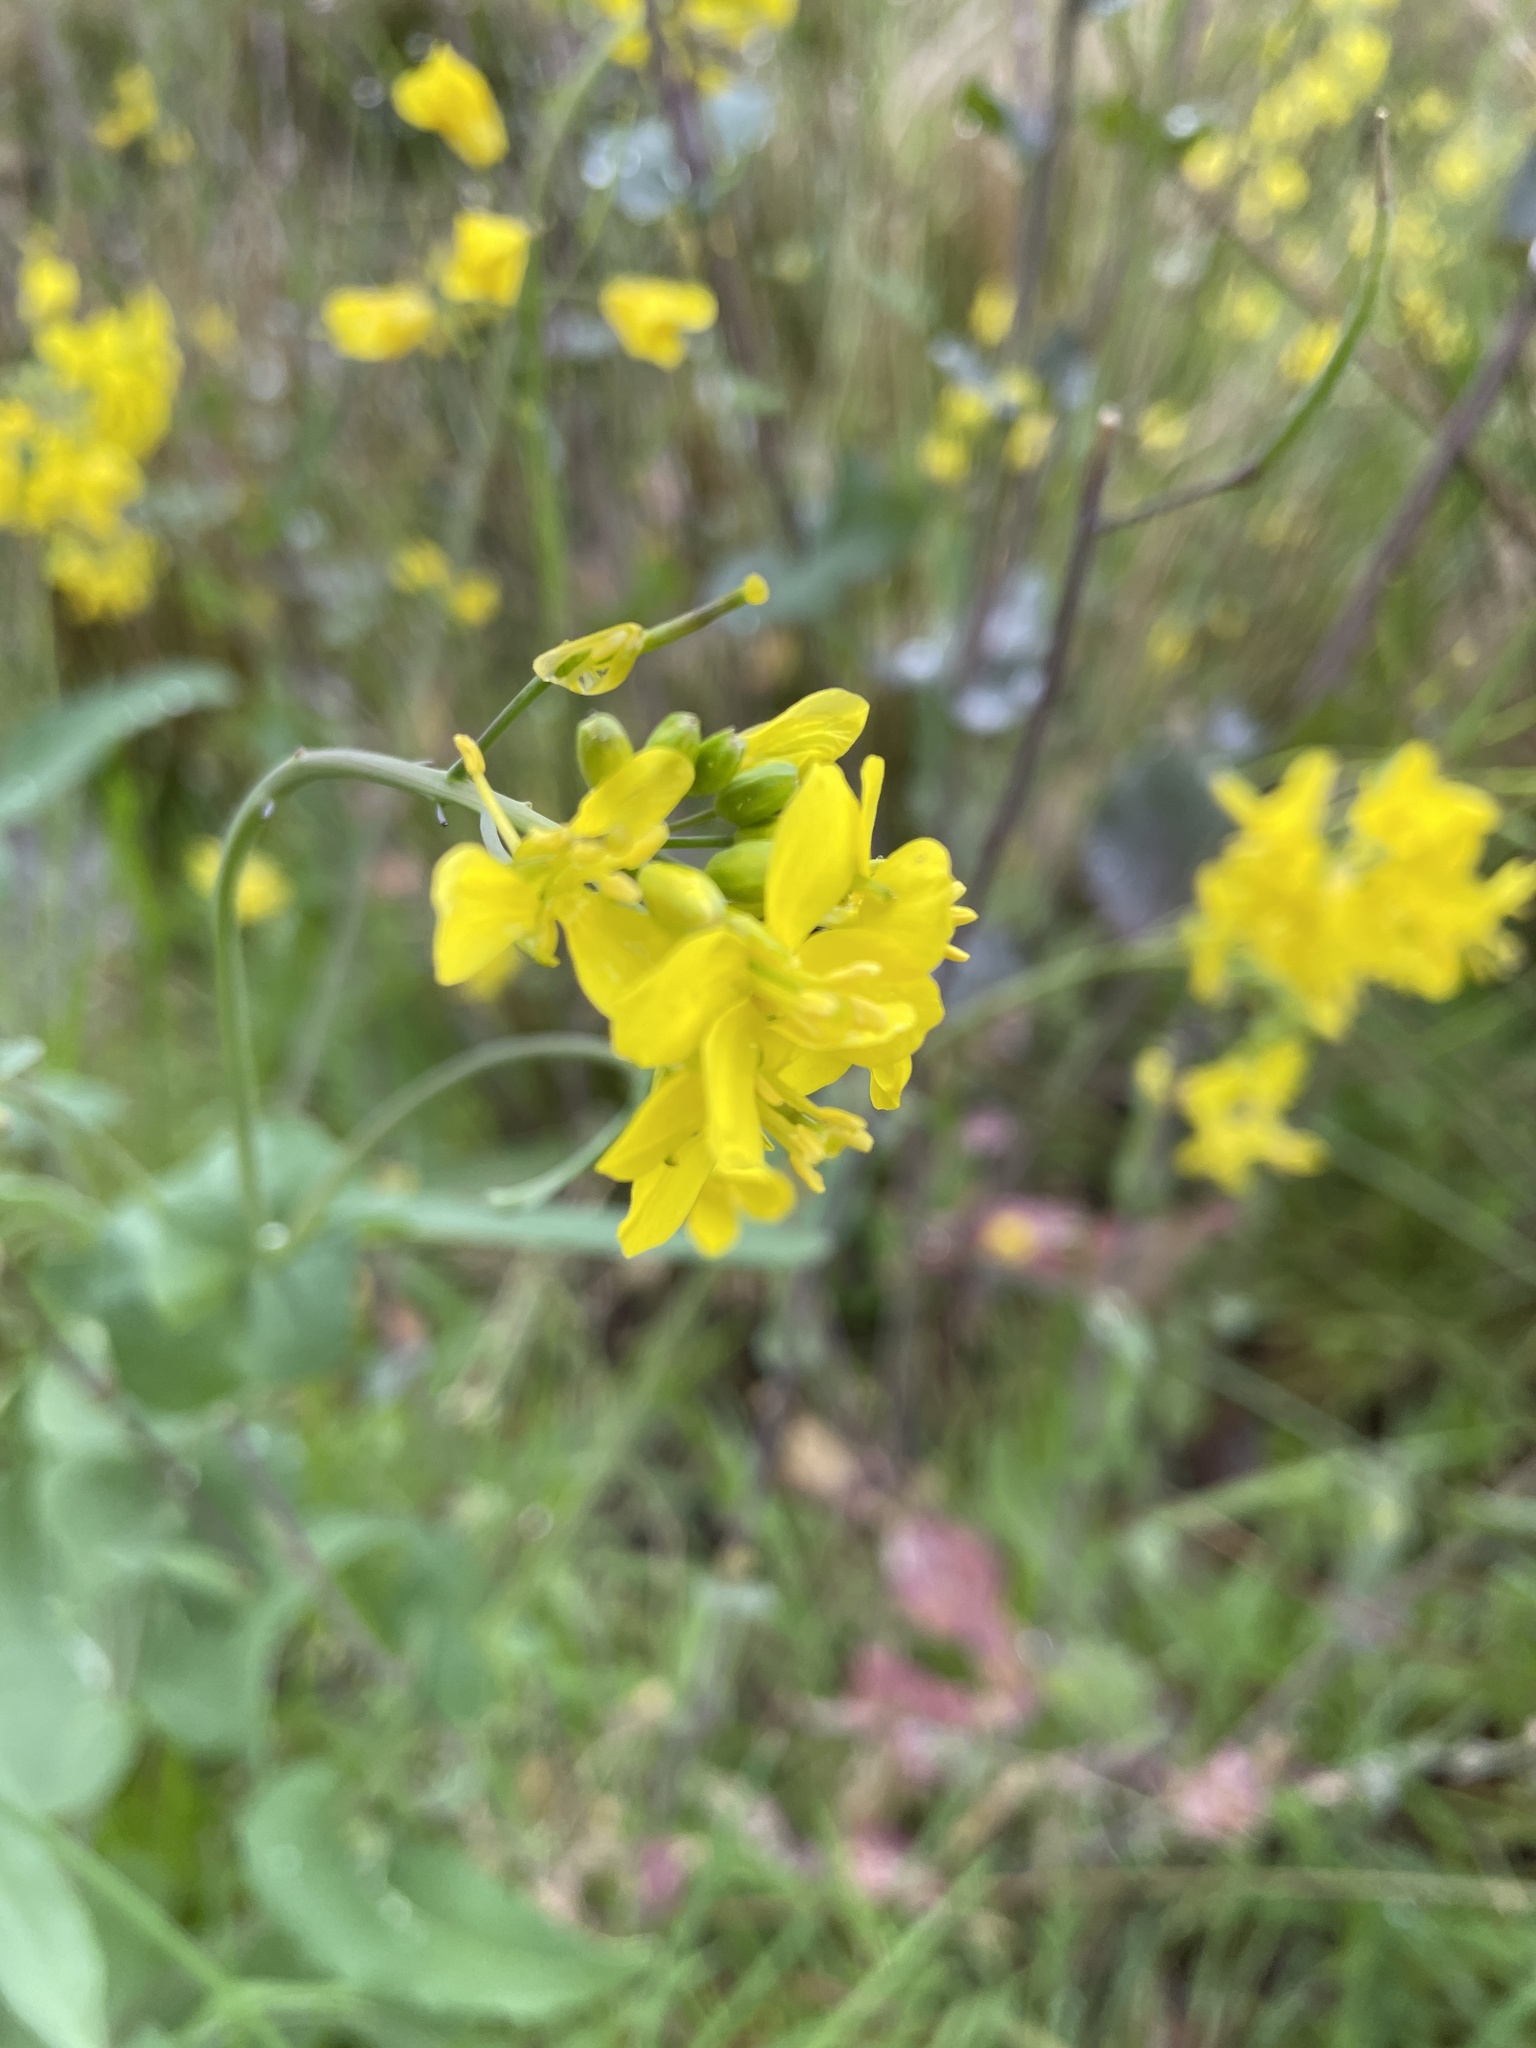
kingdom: Plantae
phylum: Tracheophyta
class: Magnoliopsida
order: Brassicales
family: Brassicaceae
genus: Brassica
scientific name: Brassica rapa
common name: Field mustard
